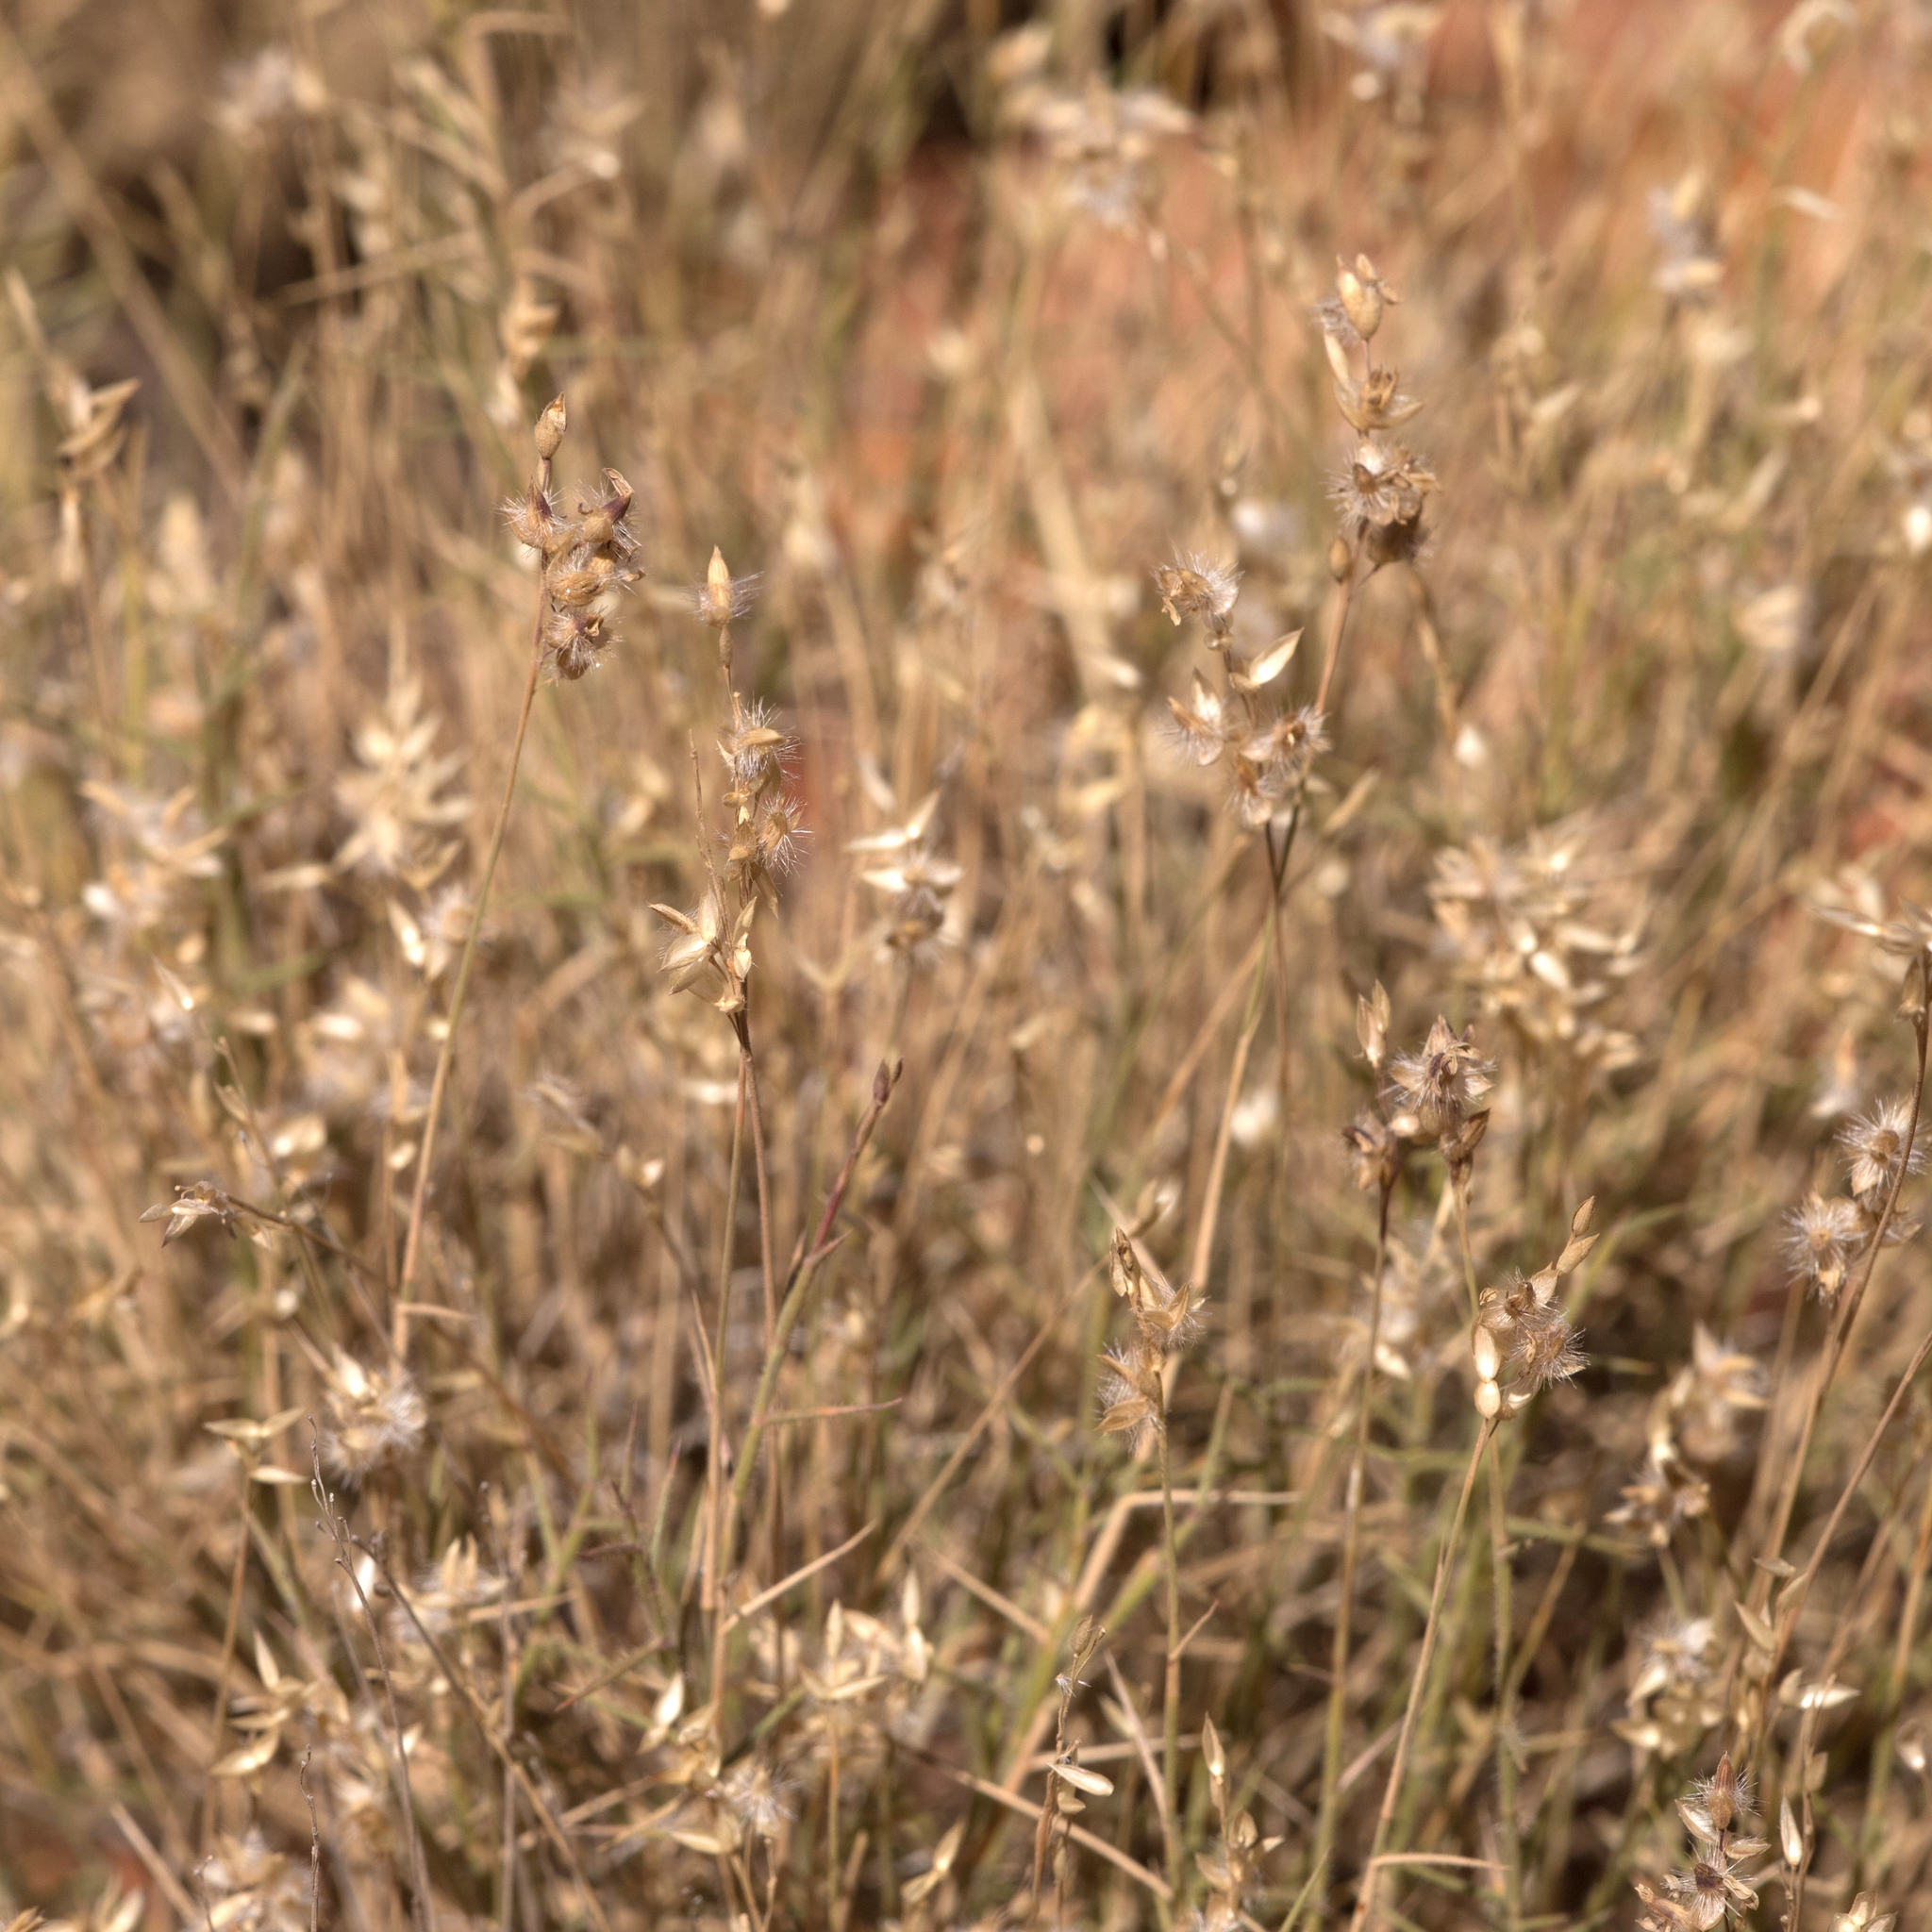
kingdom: Plantae
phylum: Tracheophyta
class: Liliopsida
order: Poales
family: Poaceae
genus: Eriachne
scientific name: Eriachne mucronata
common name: Mountain wanderrie grass
